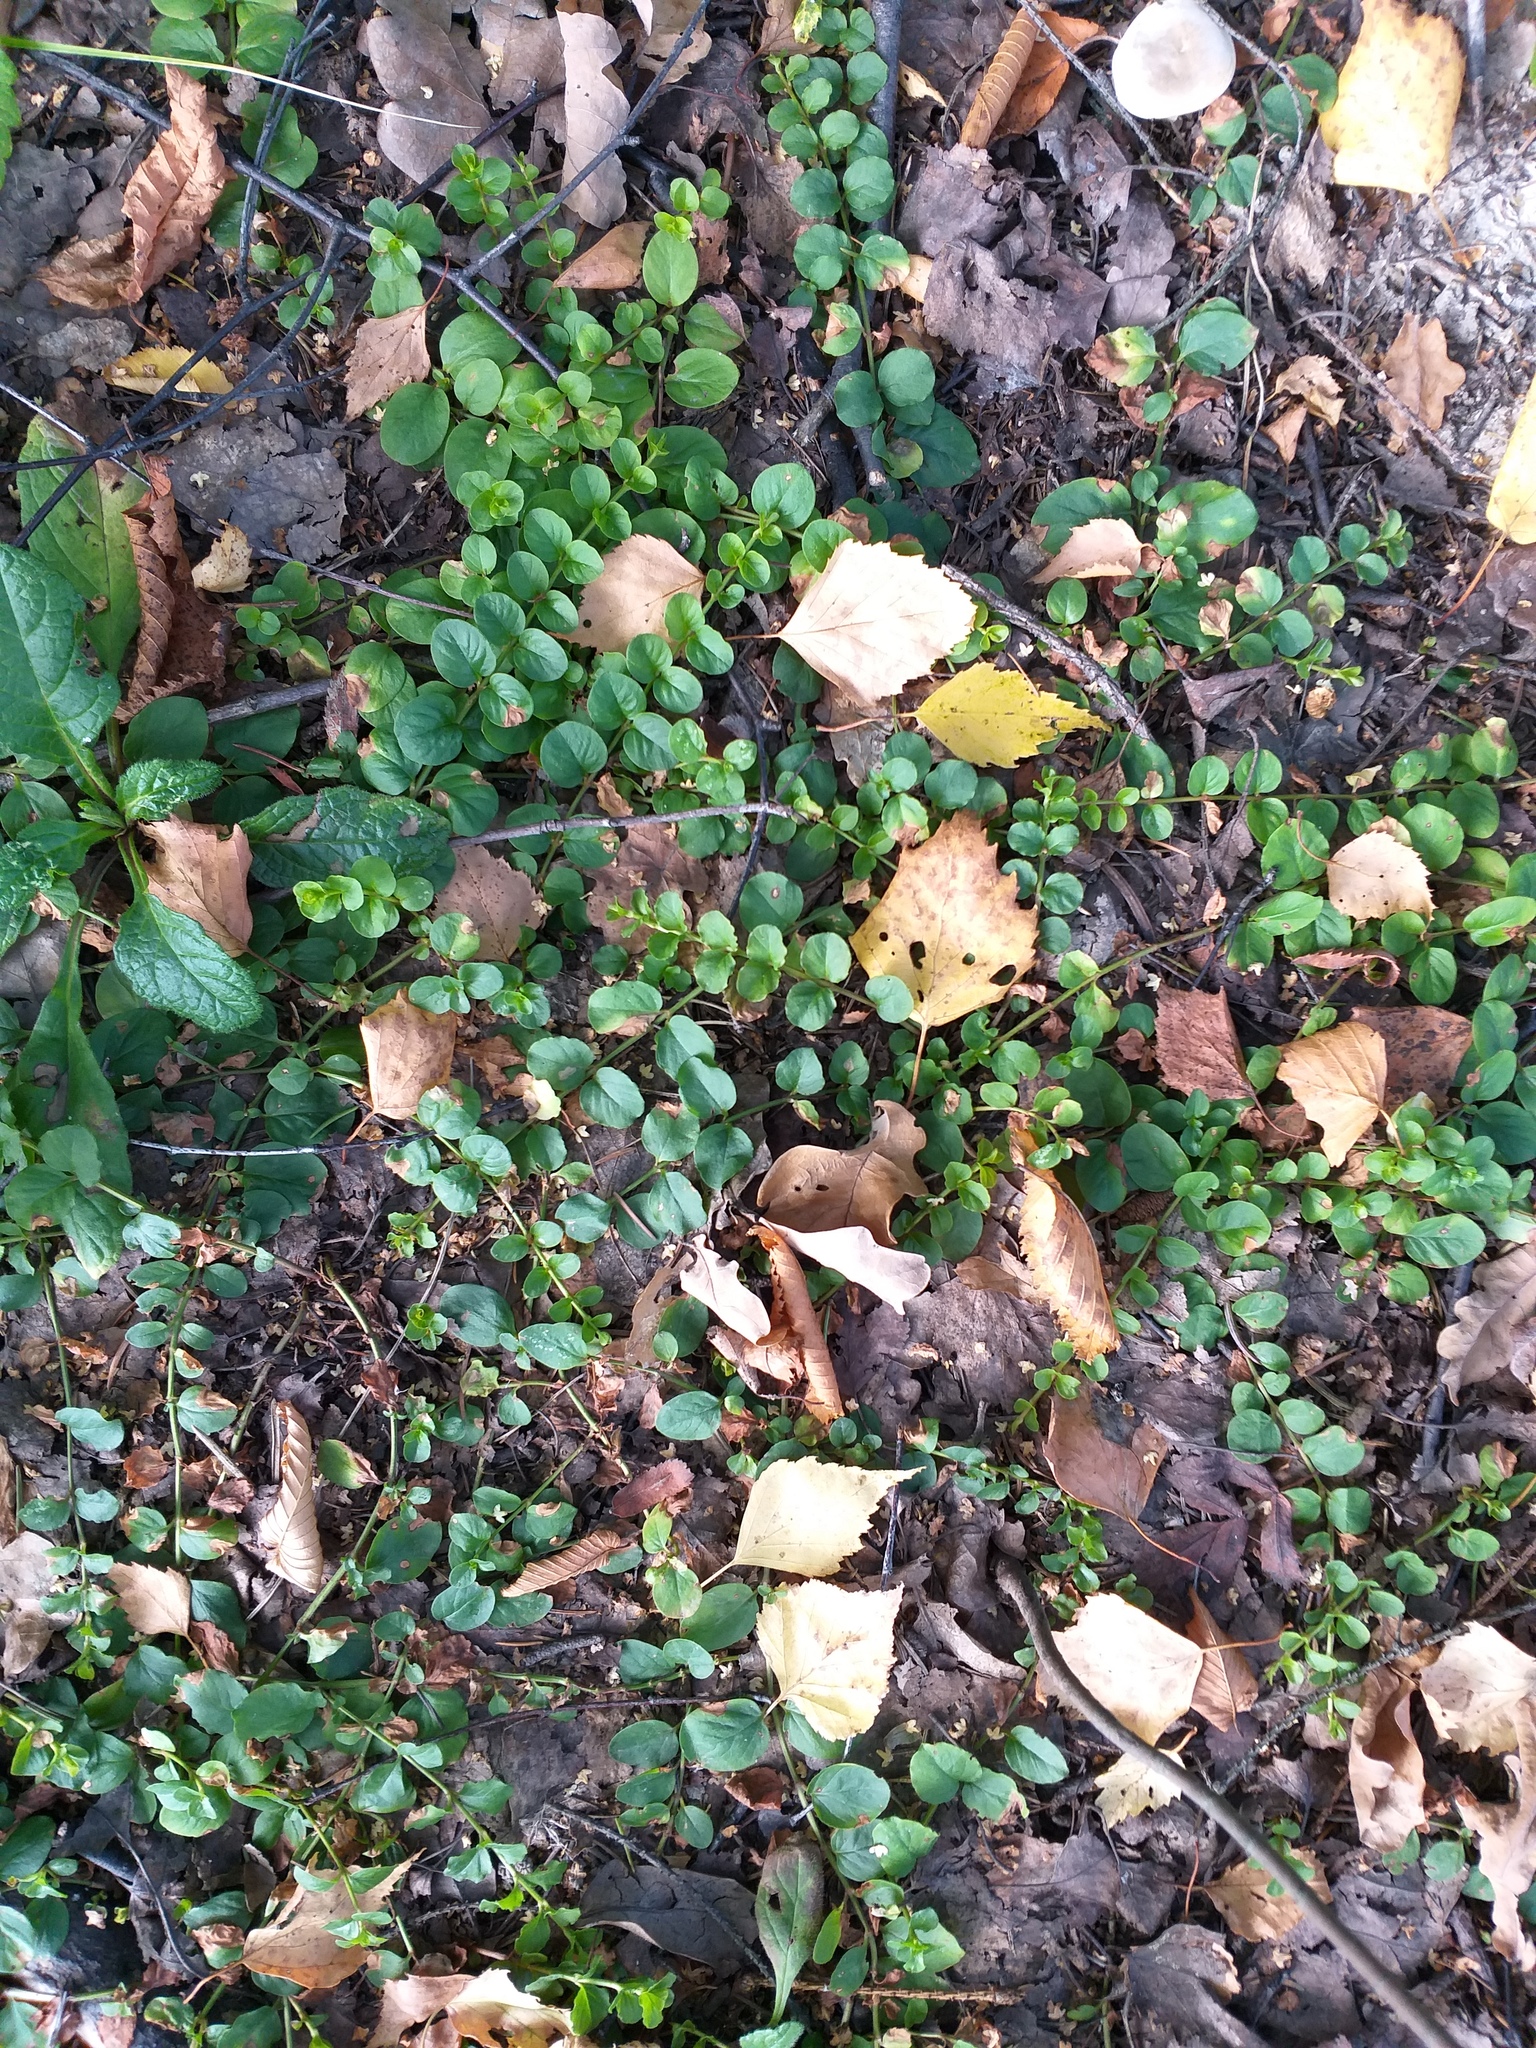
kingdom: Plantae
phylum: Tracheophyta
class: Magnoliopsida
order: Ericales
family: Primulaceae
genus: Lysimachia
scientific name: Lysimachia nummularia
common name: Moneywort
